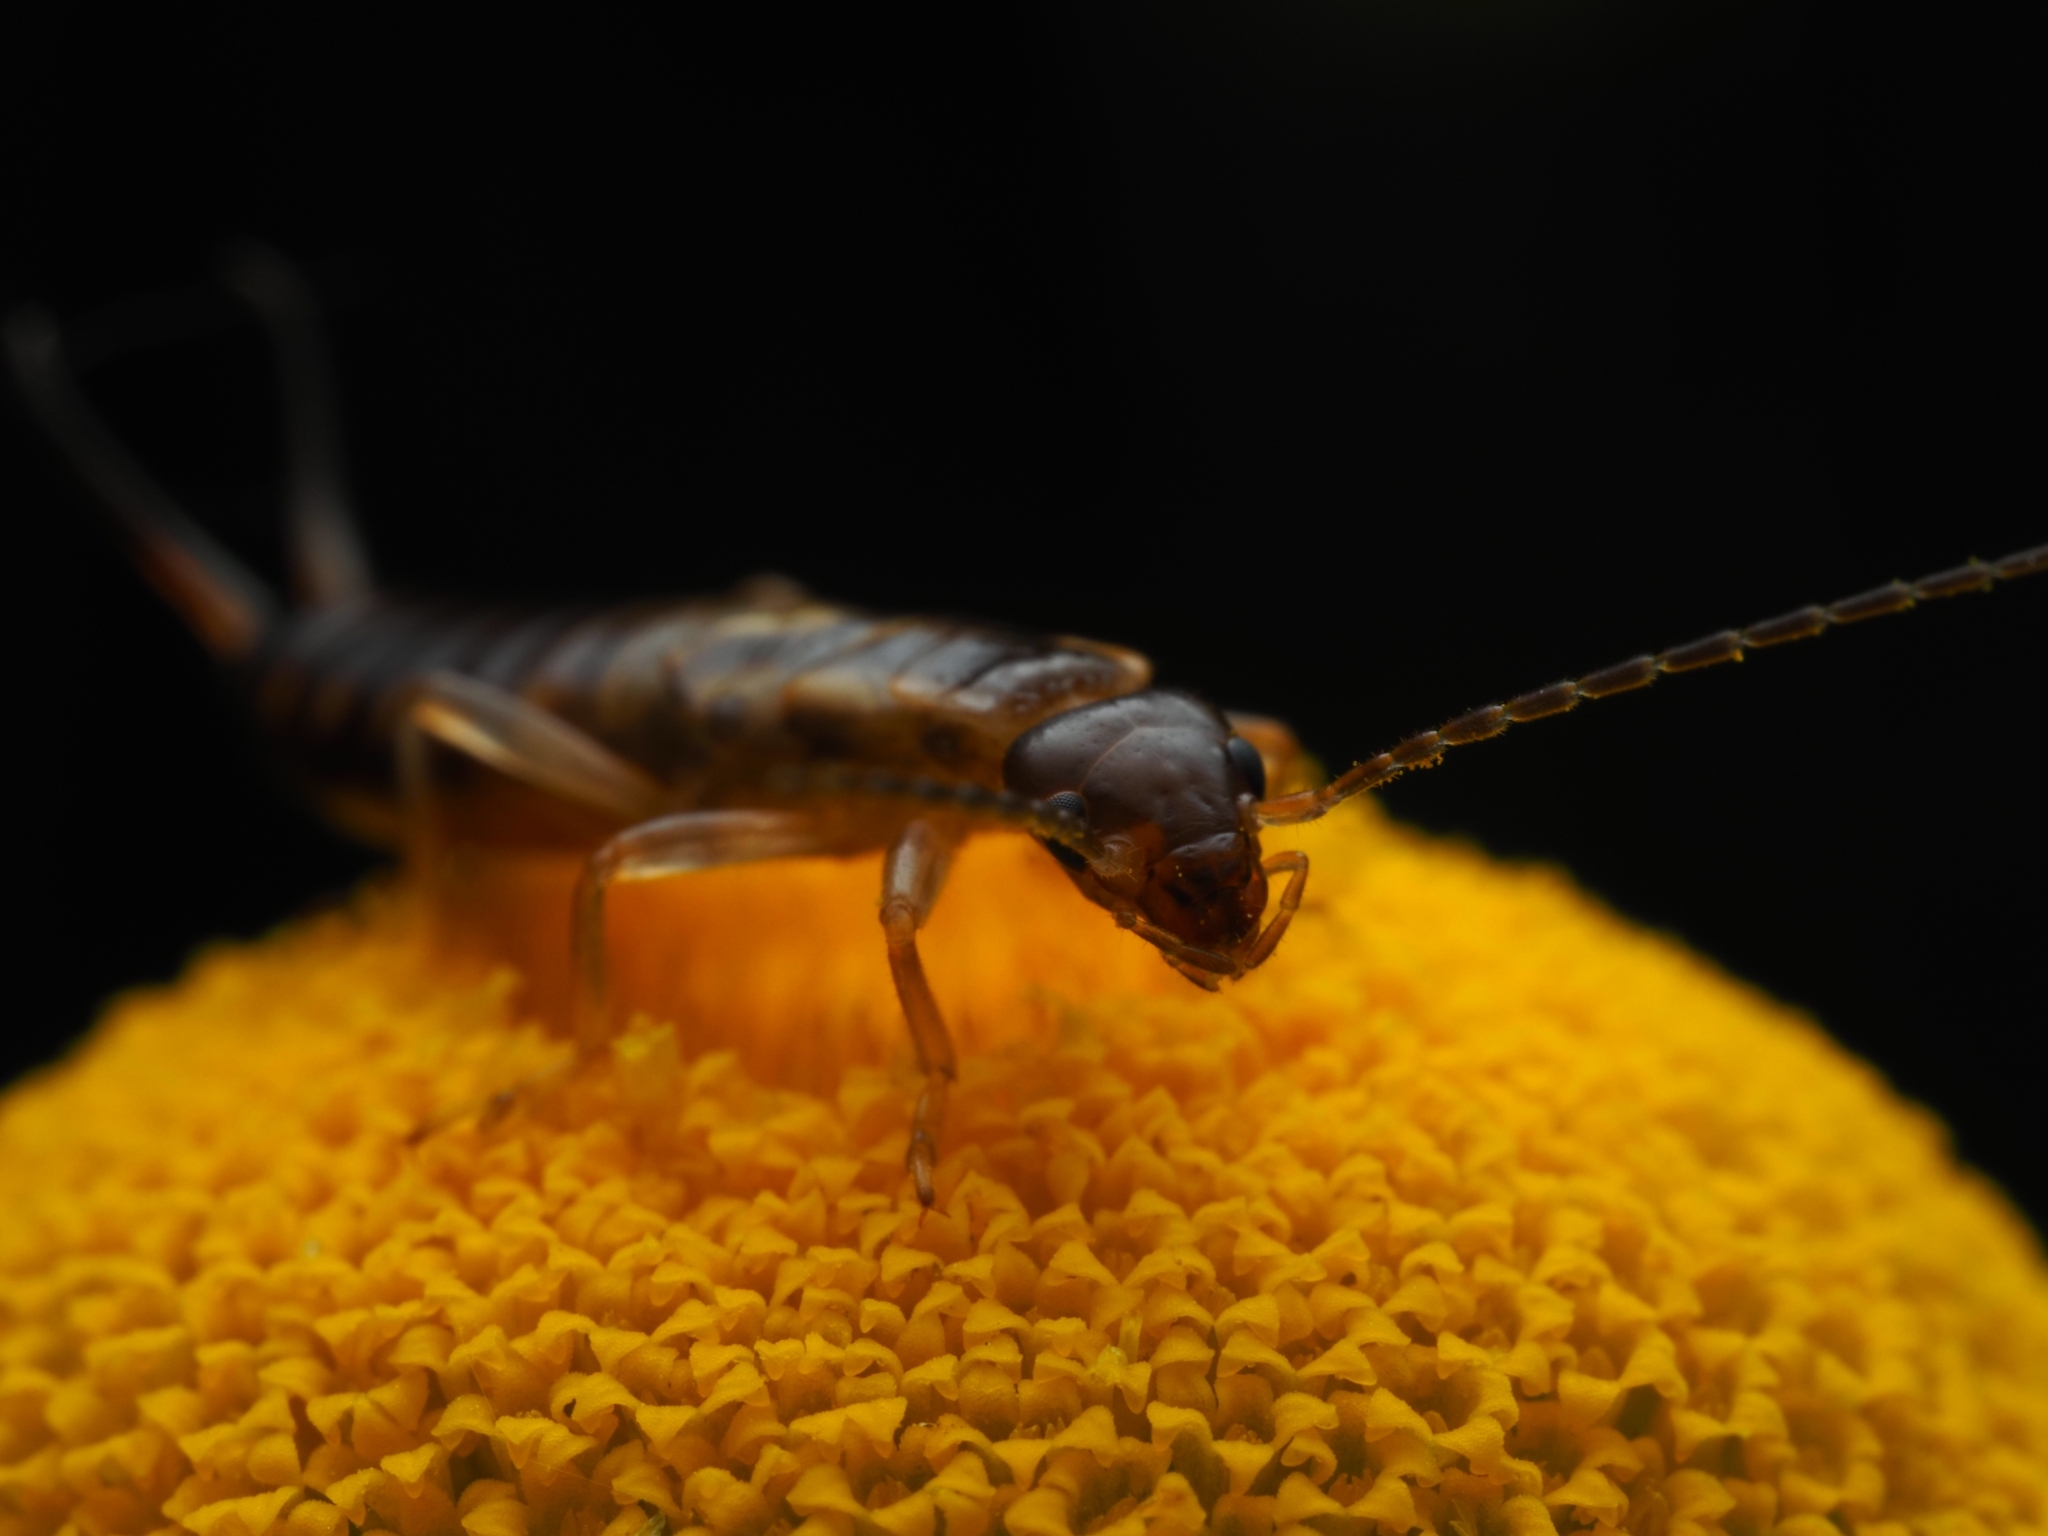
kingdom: Animalia
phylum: Arthropoda
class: Insecta
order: Dermaptera
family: Forficulidae
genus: Forficula
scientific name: Forficula
